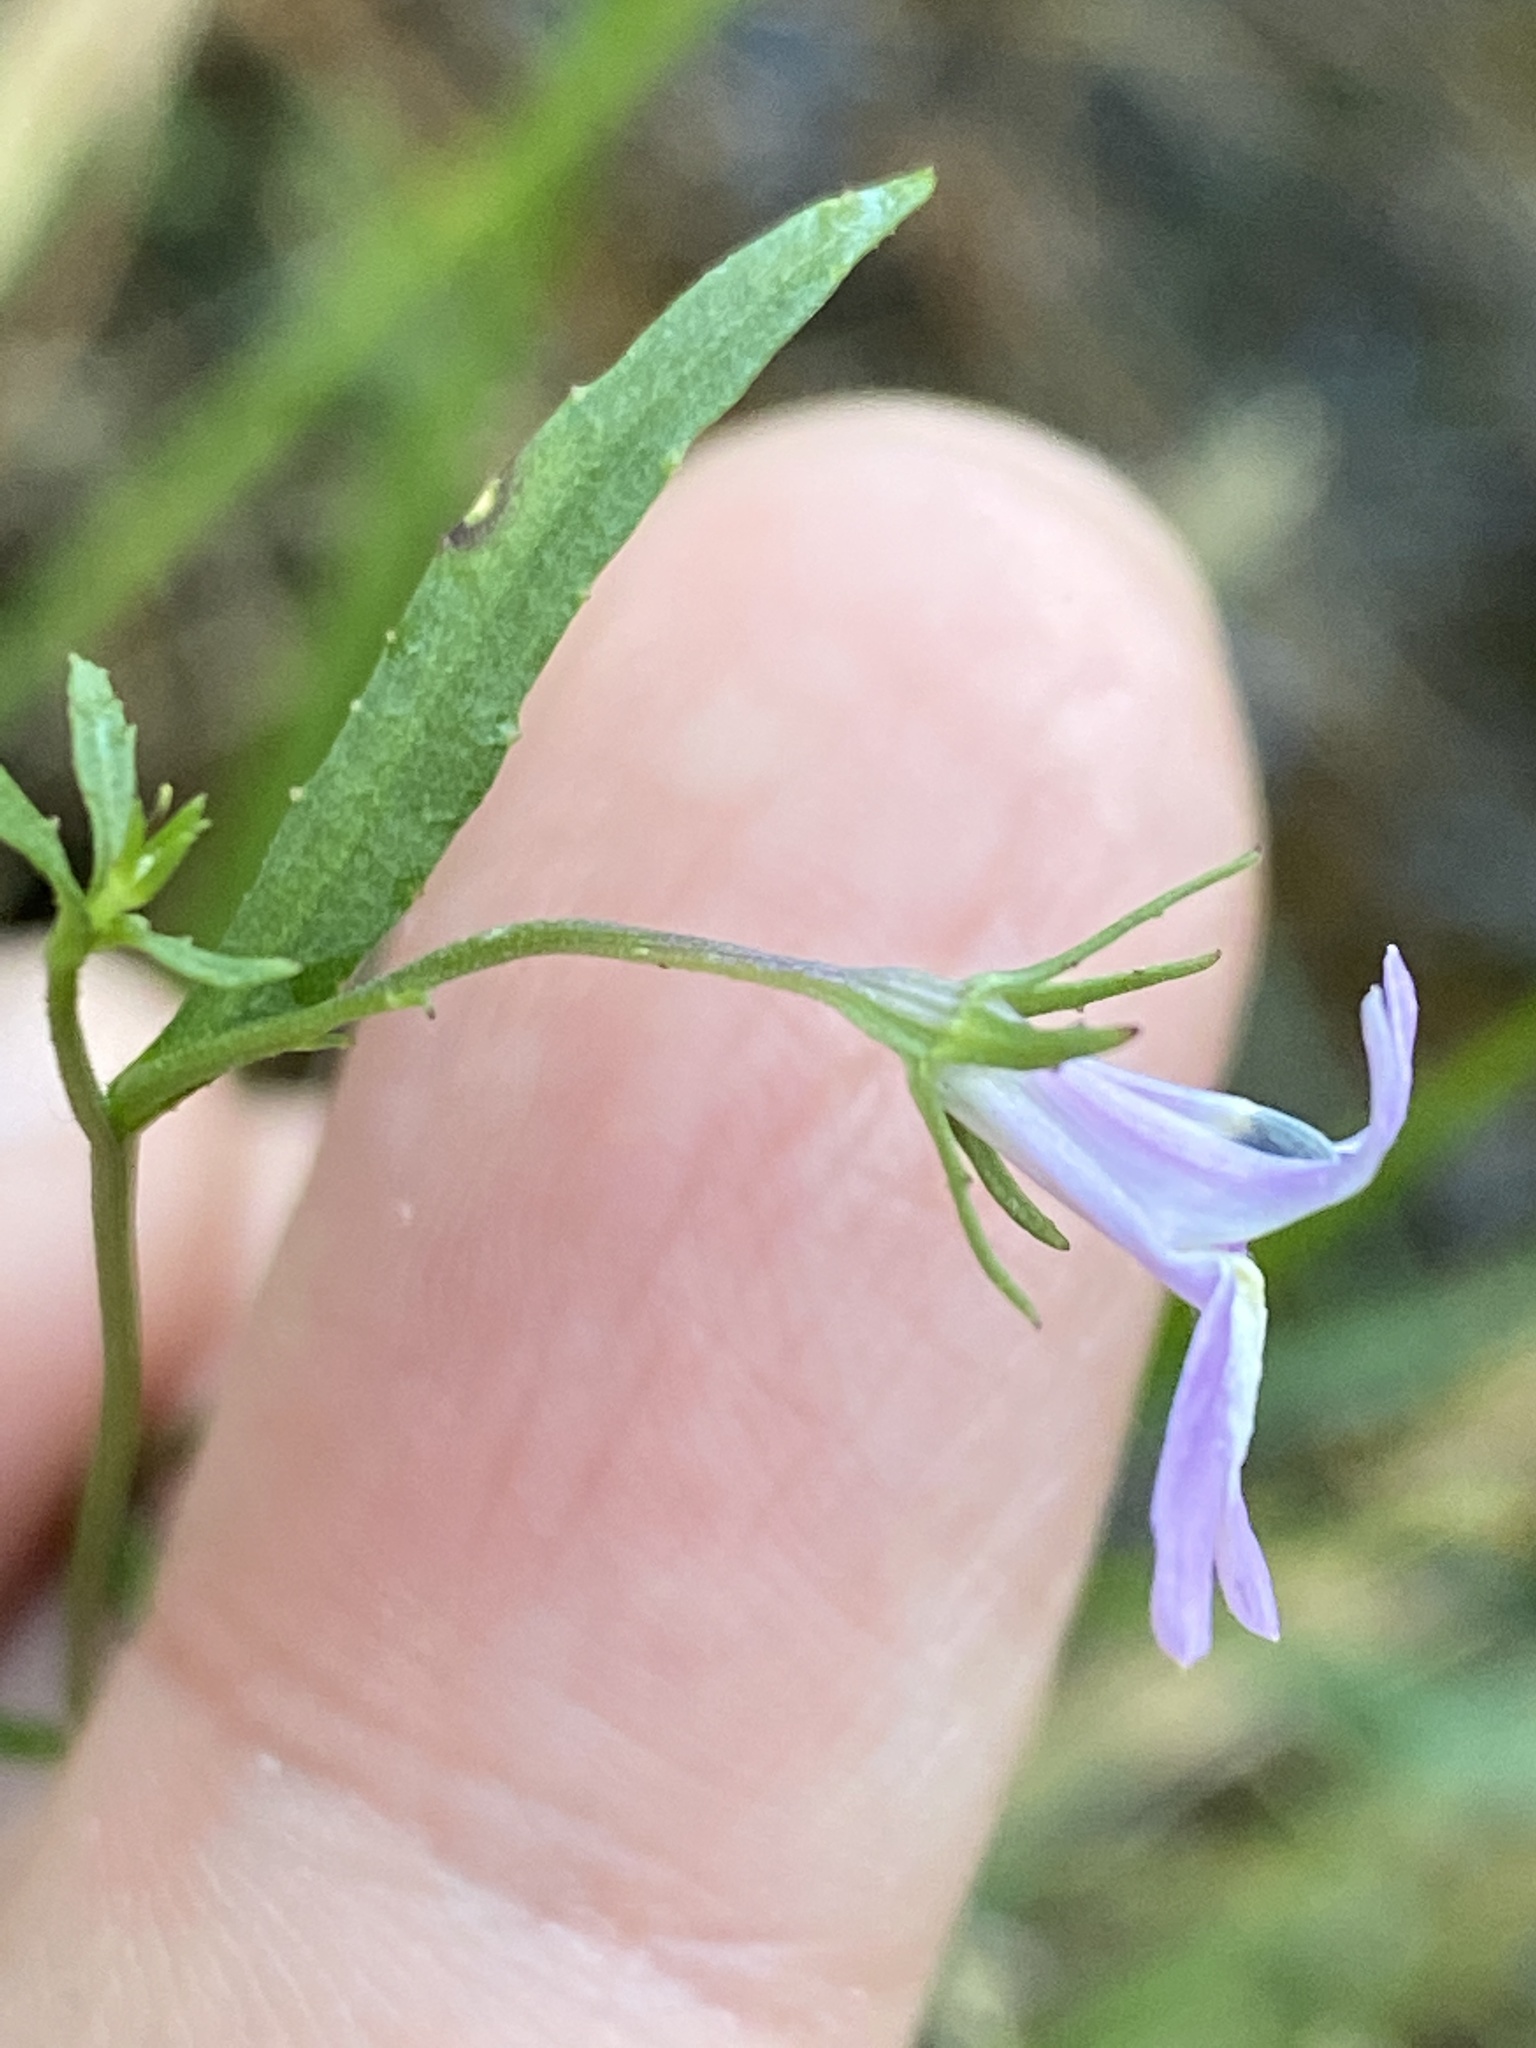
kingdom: Plantae
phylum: Tracheophyta
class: Magnoliopsida
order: Asterales
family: Campanulaceae
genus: Lobelia
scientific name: Lobelia canbyi
